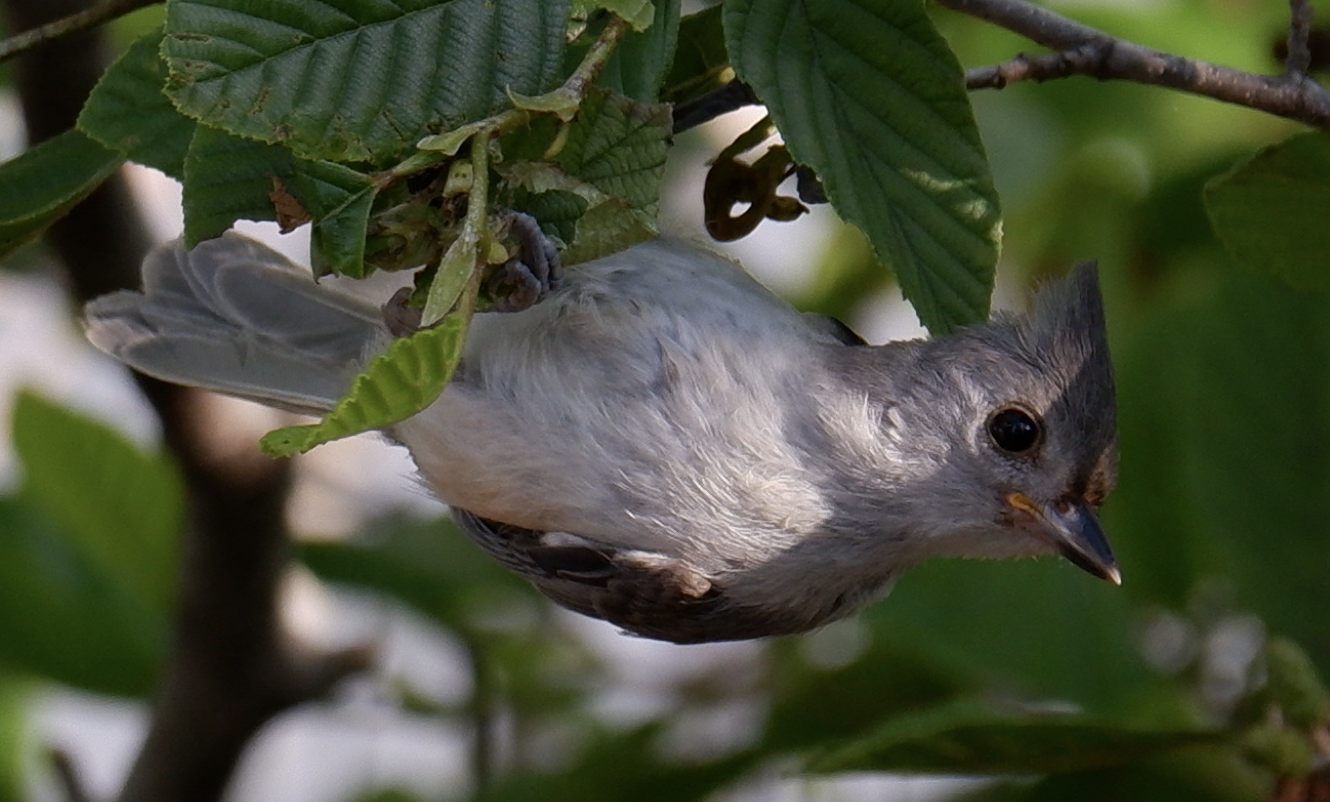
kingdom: Animalia
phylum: Chordata
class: Aves
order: Passeriformes
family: Paridae
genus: Baeolophus
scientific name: Baeolophus bicolor
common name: Tufted titmouse
